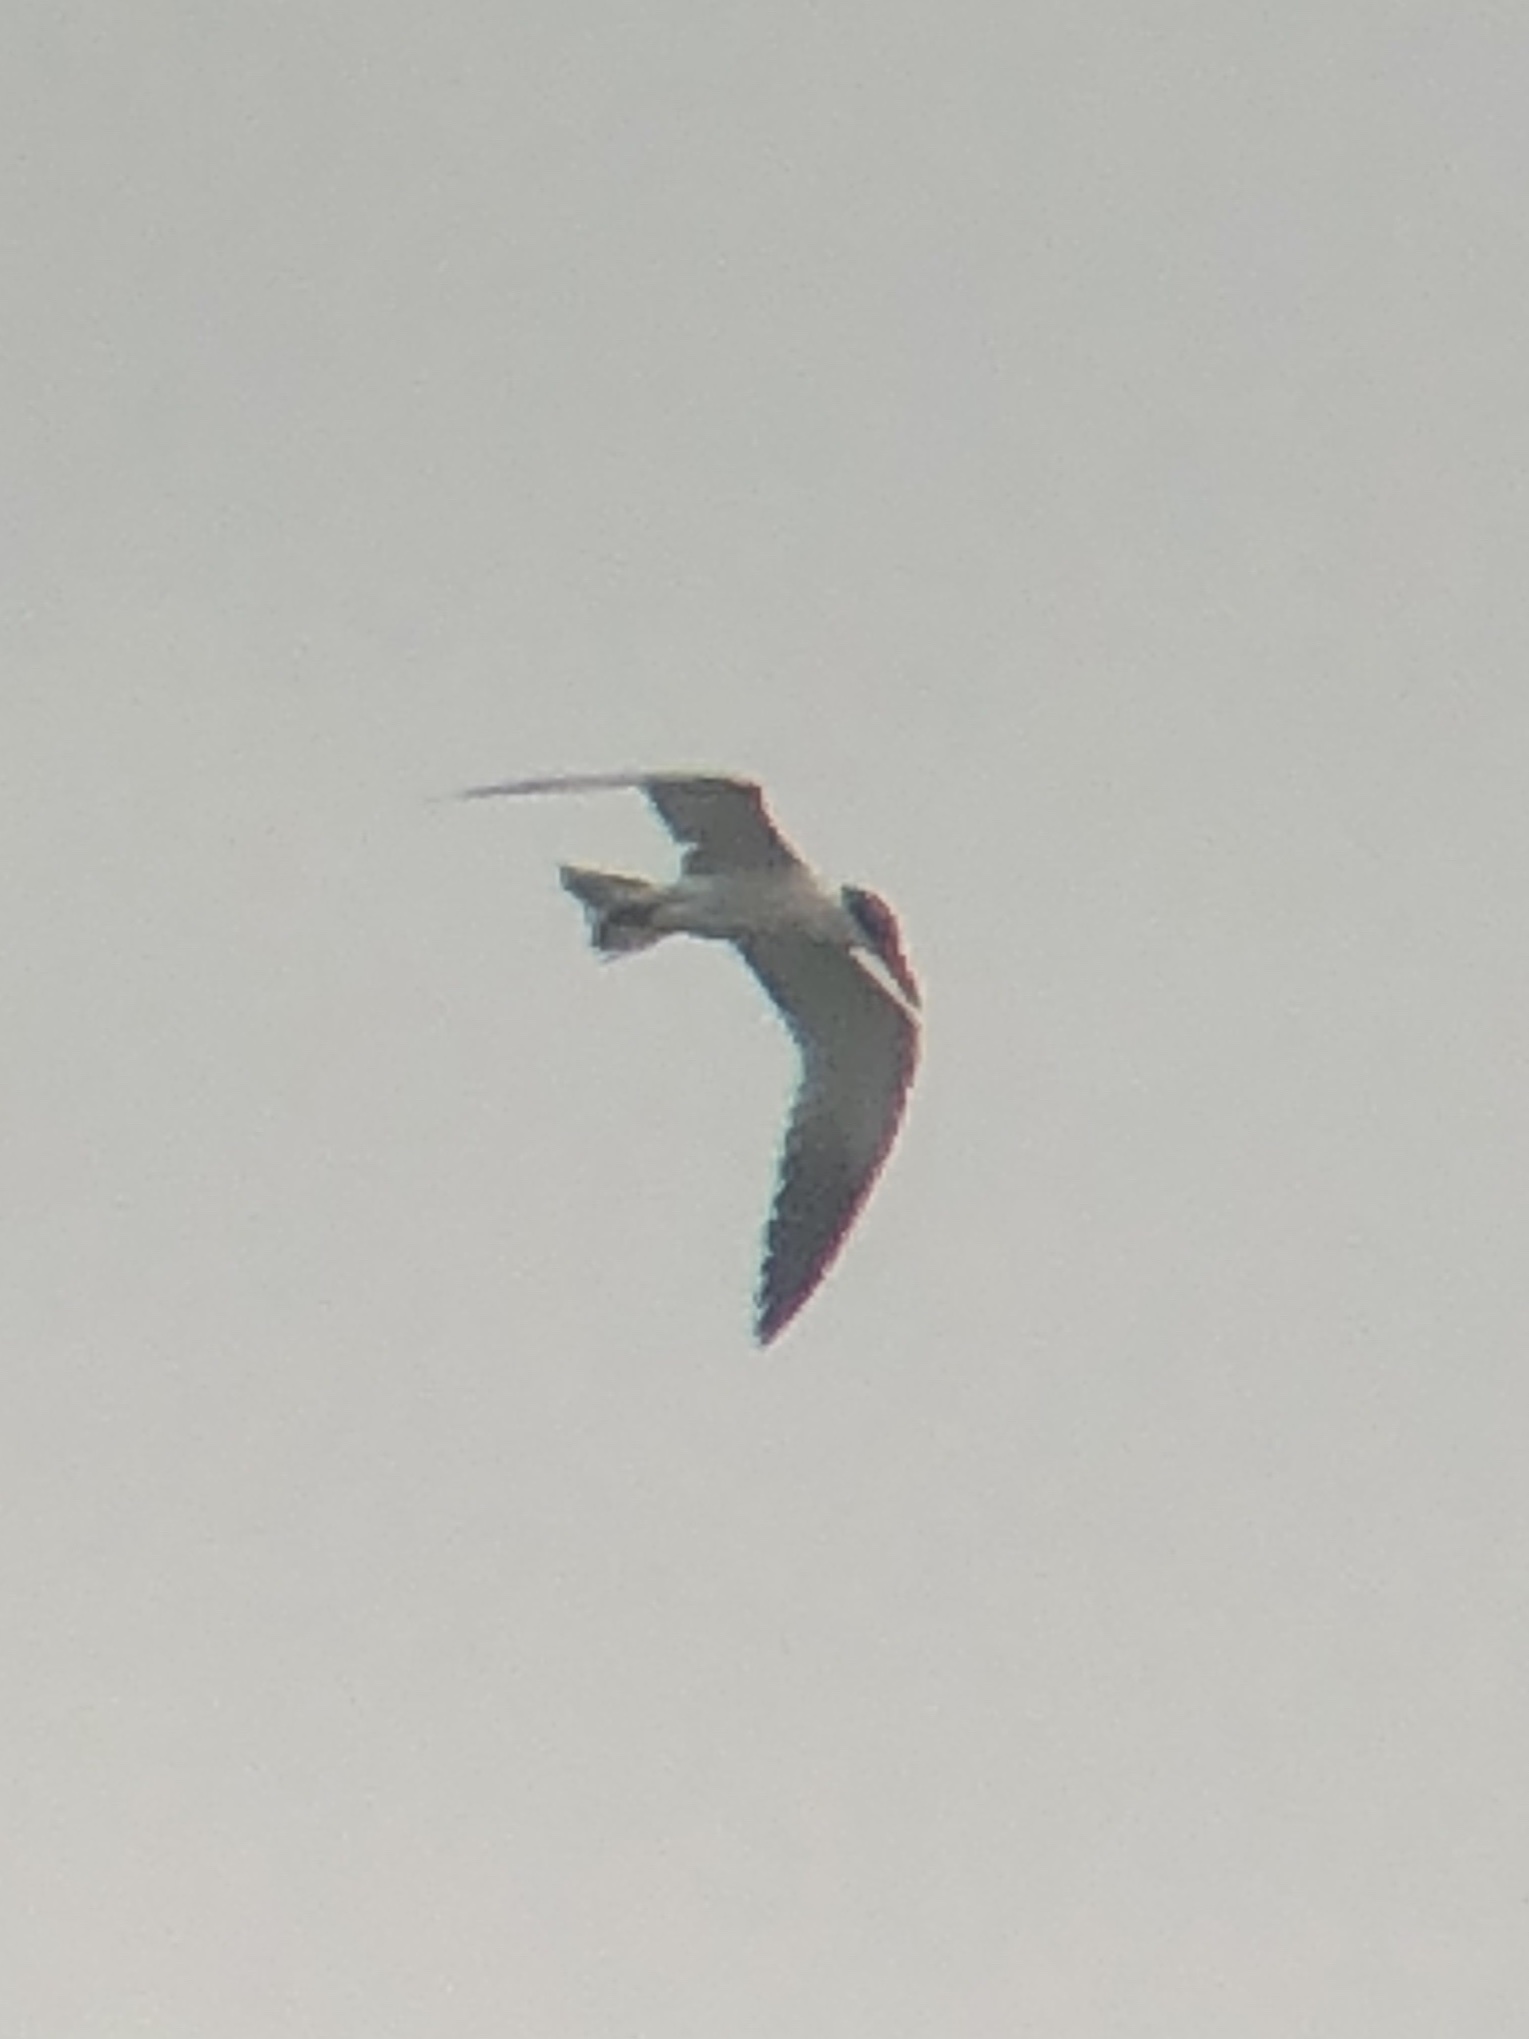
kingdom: Animalia
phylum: Chordata
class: Aves
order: Charadriiformes
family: Laridae
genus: Hydroprogne
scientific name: Hydroprogne caspia
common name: Caspian tern
